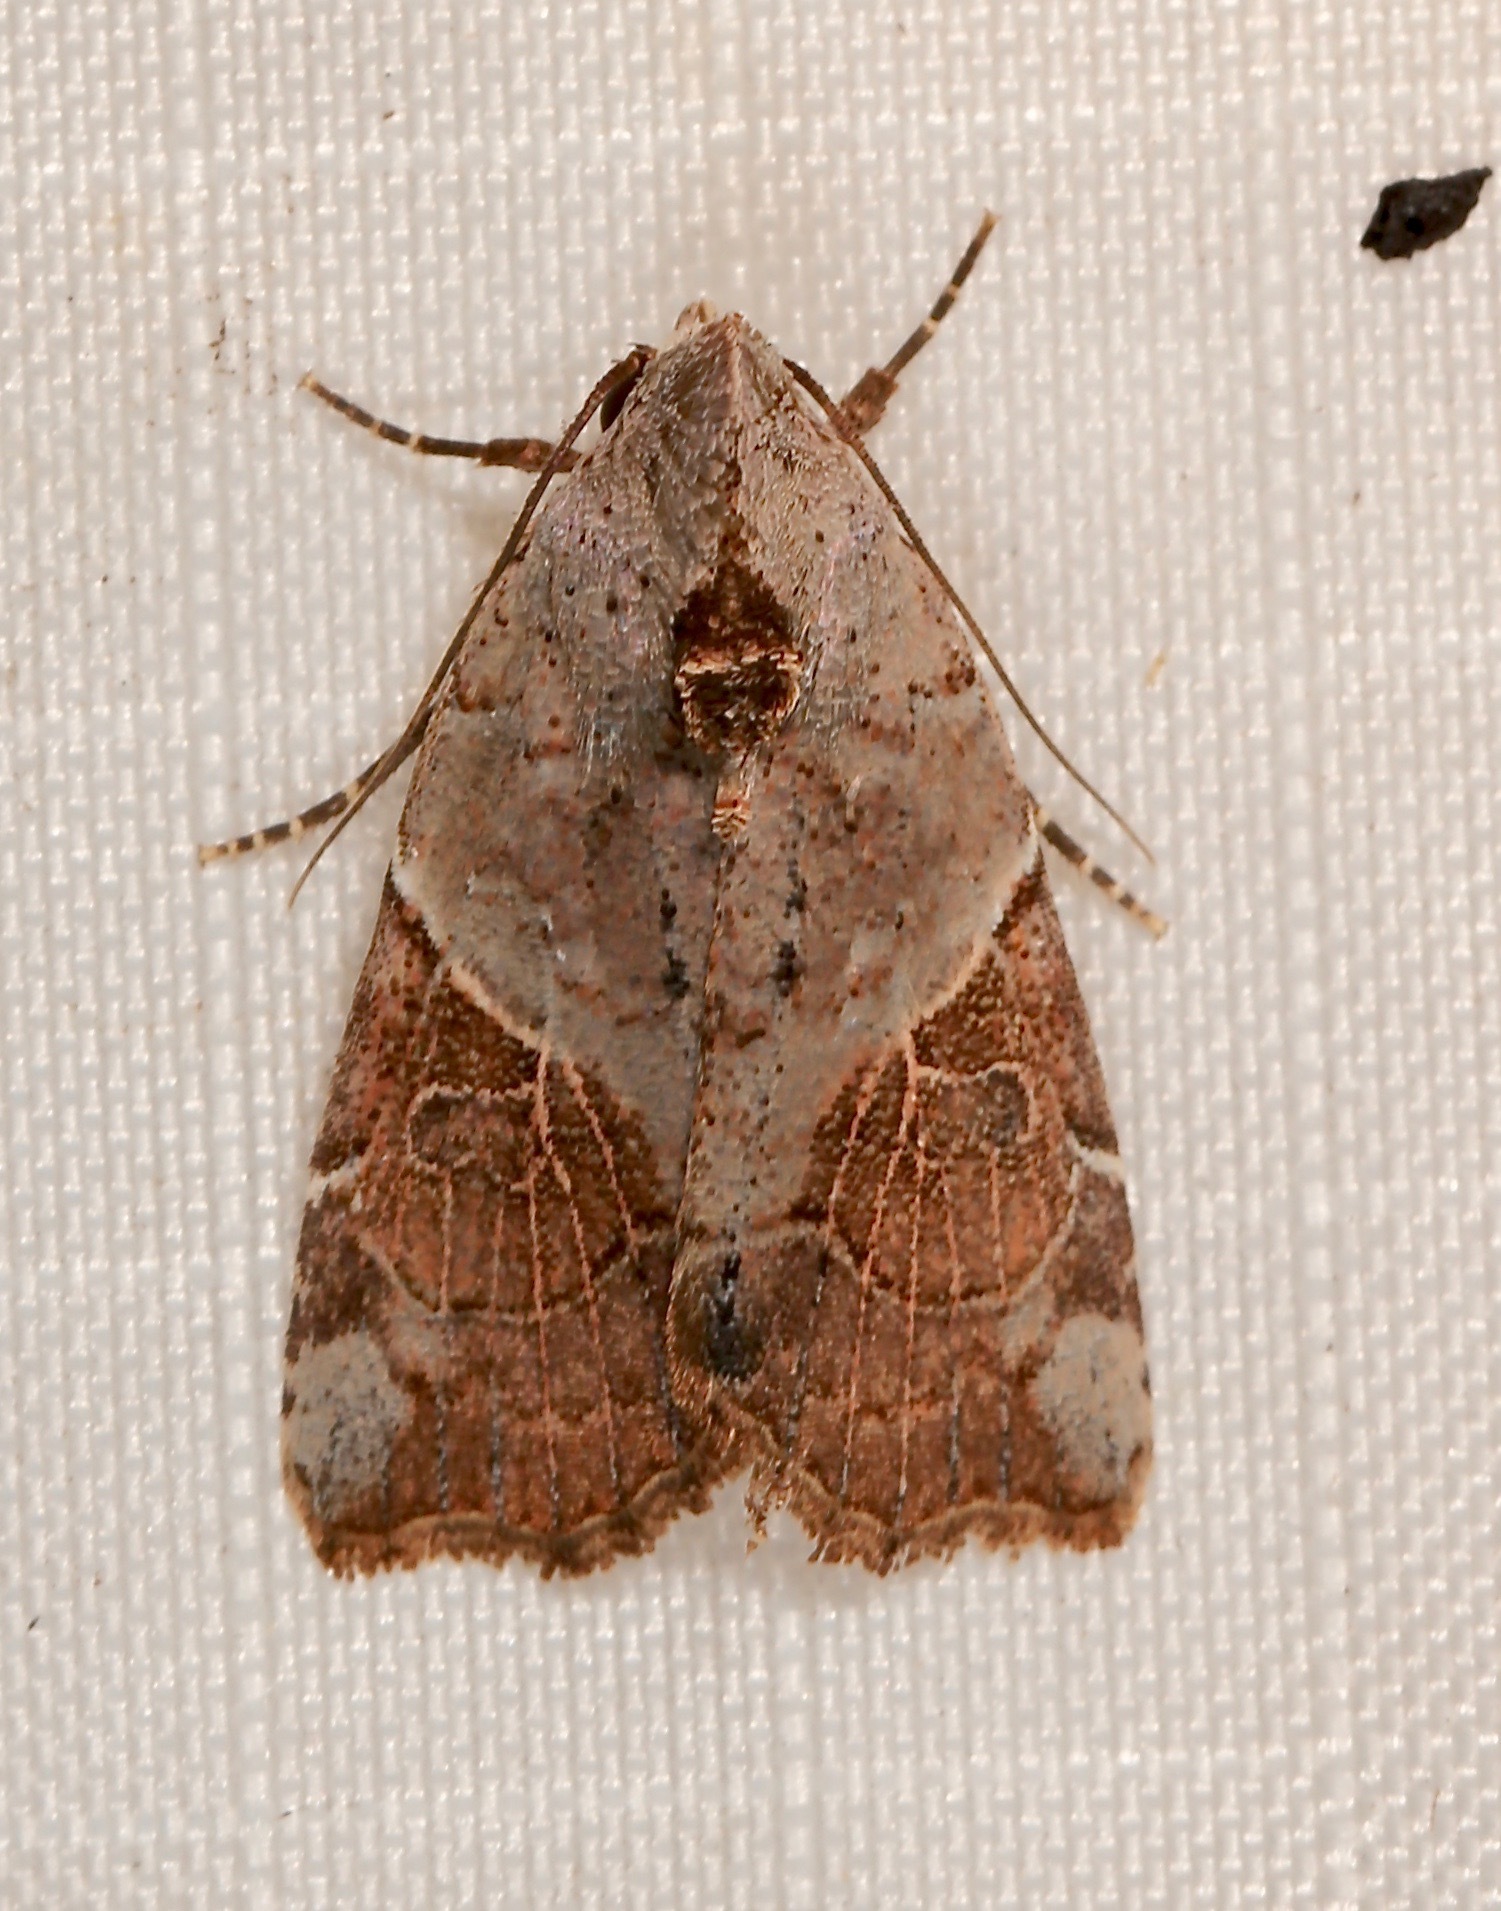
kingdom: Animalia
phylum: Arthropoda
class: Insecta
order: Lepidoptera
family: Noctuidae
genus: Gonodes
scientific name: Gonodes liquida
